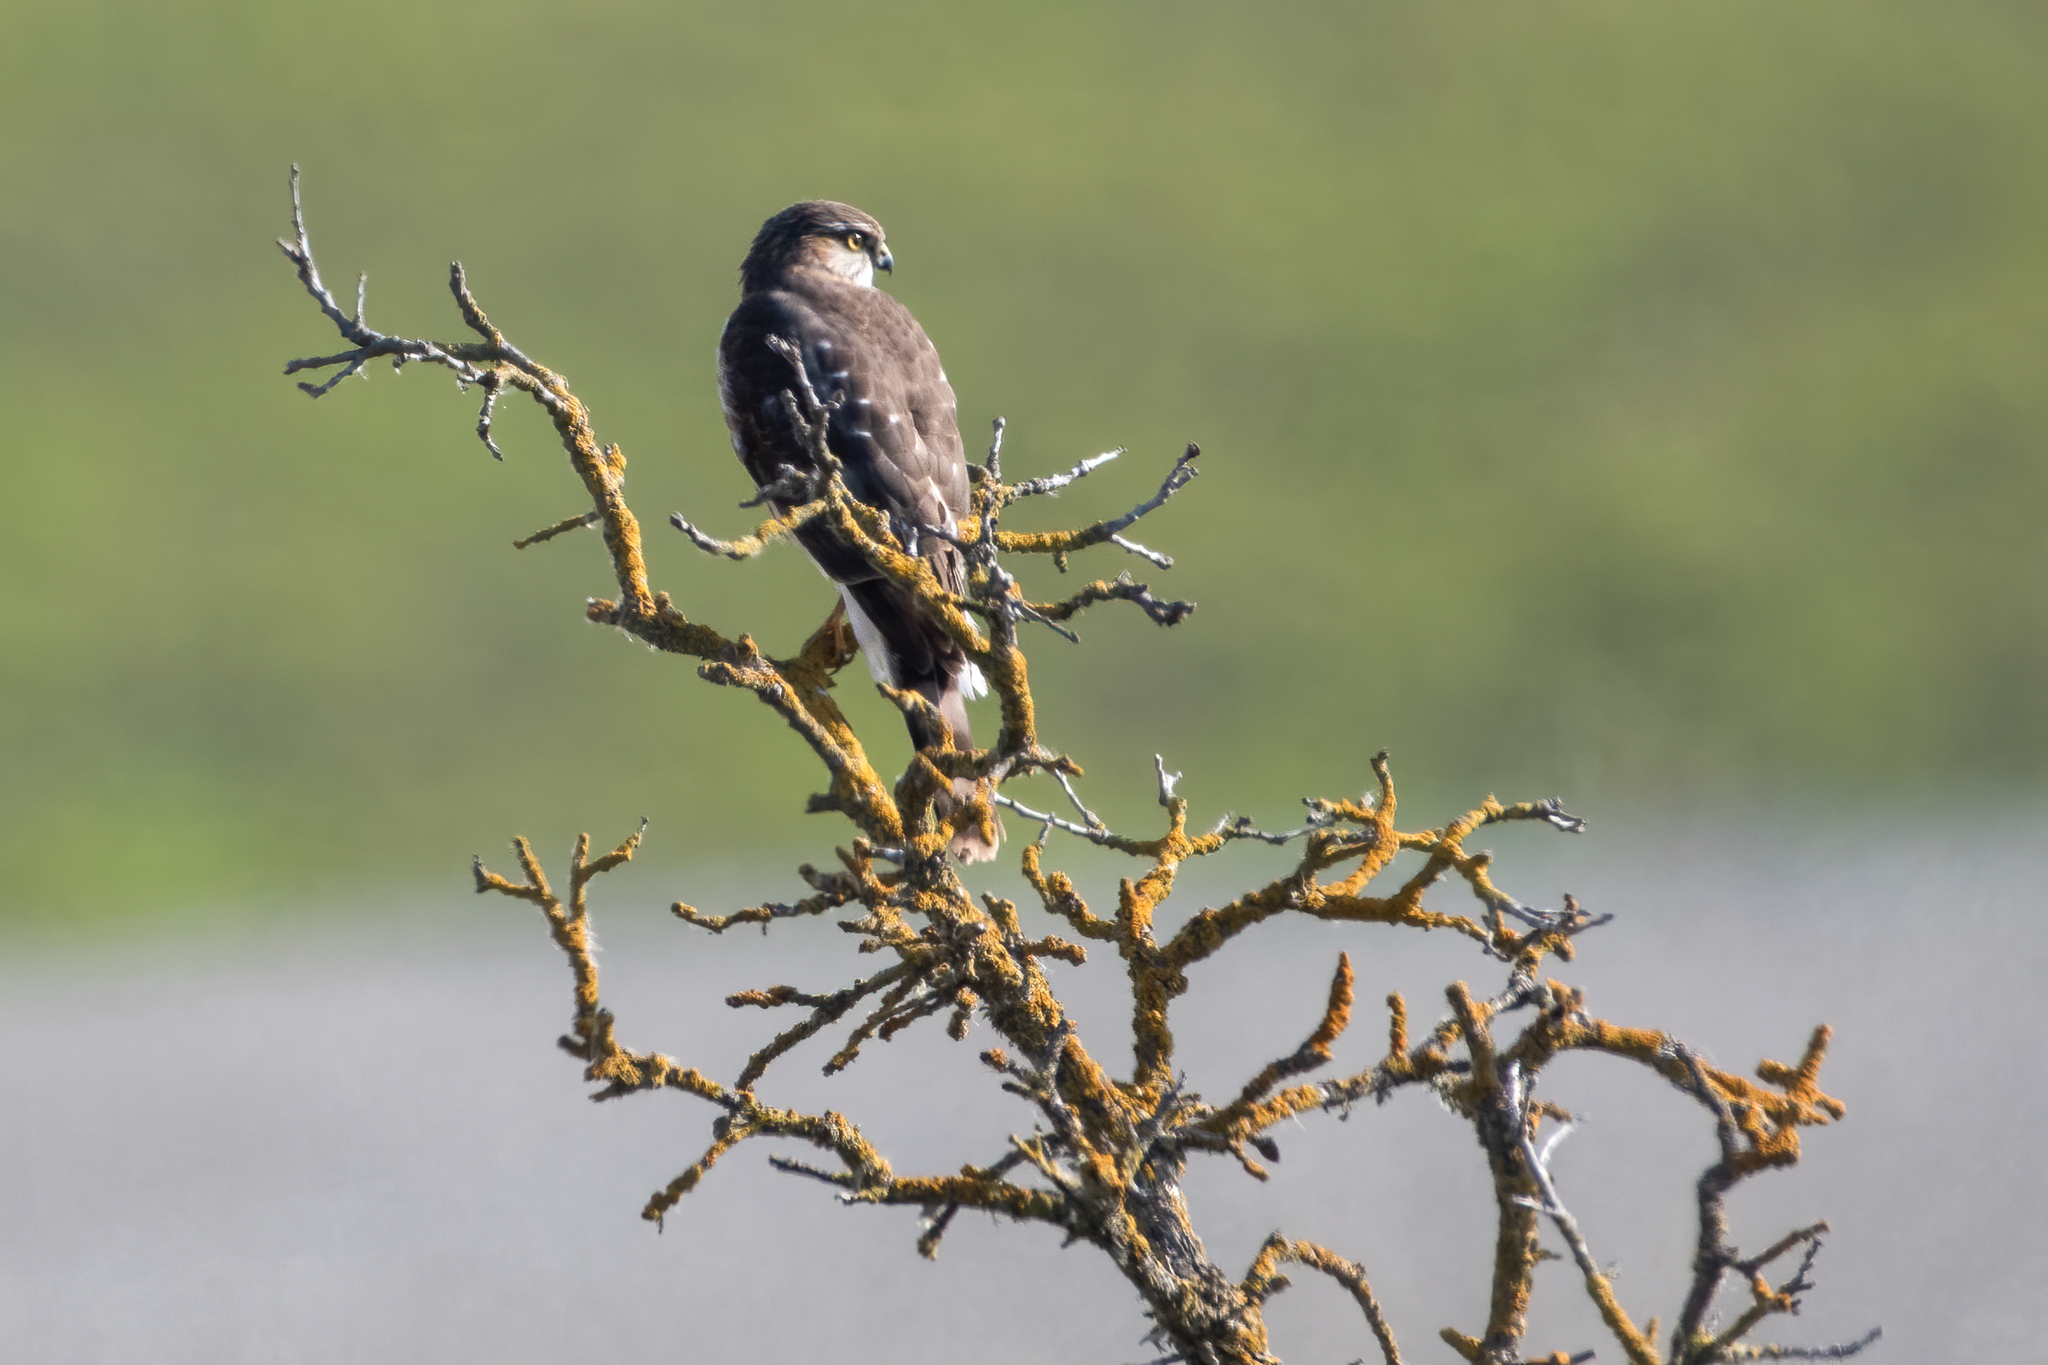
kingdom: Animalia
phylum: Chordata
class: Aves
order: Accipitriformes
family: Accipitridae
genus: Accipiter
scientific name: Accipiter striatus
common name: Sharp-shinned hawk
